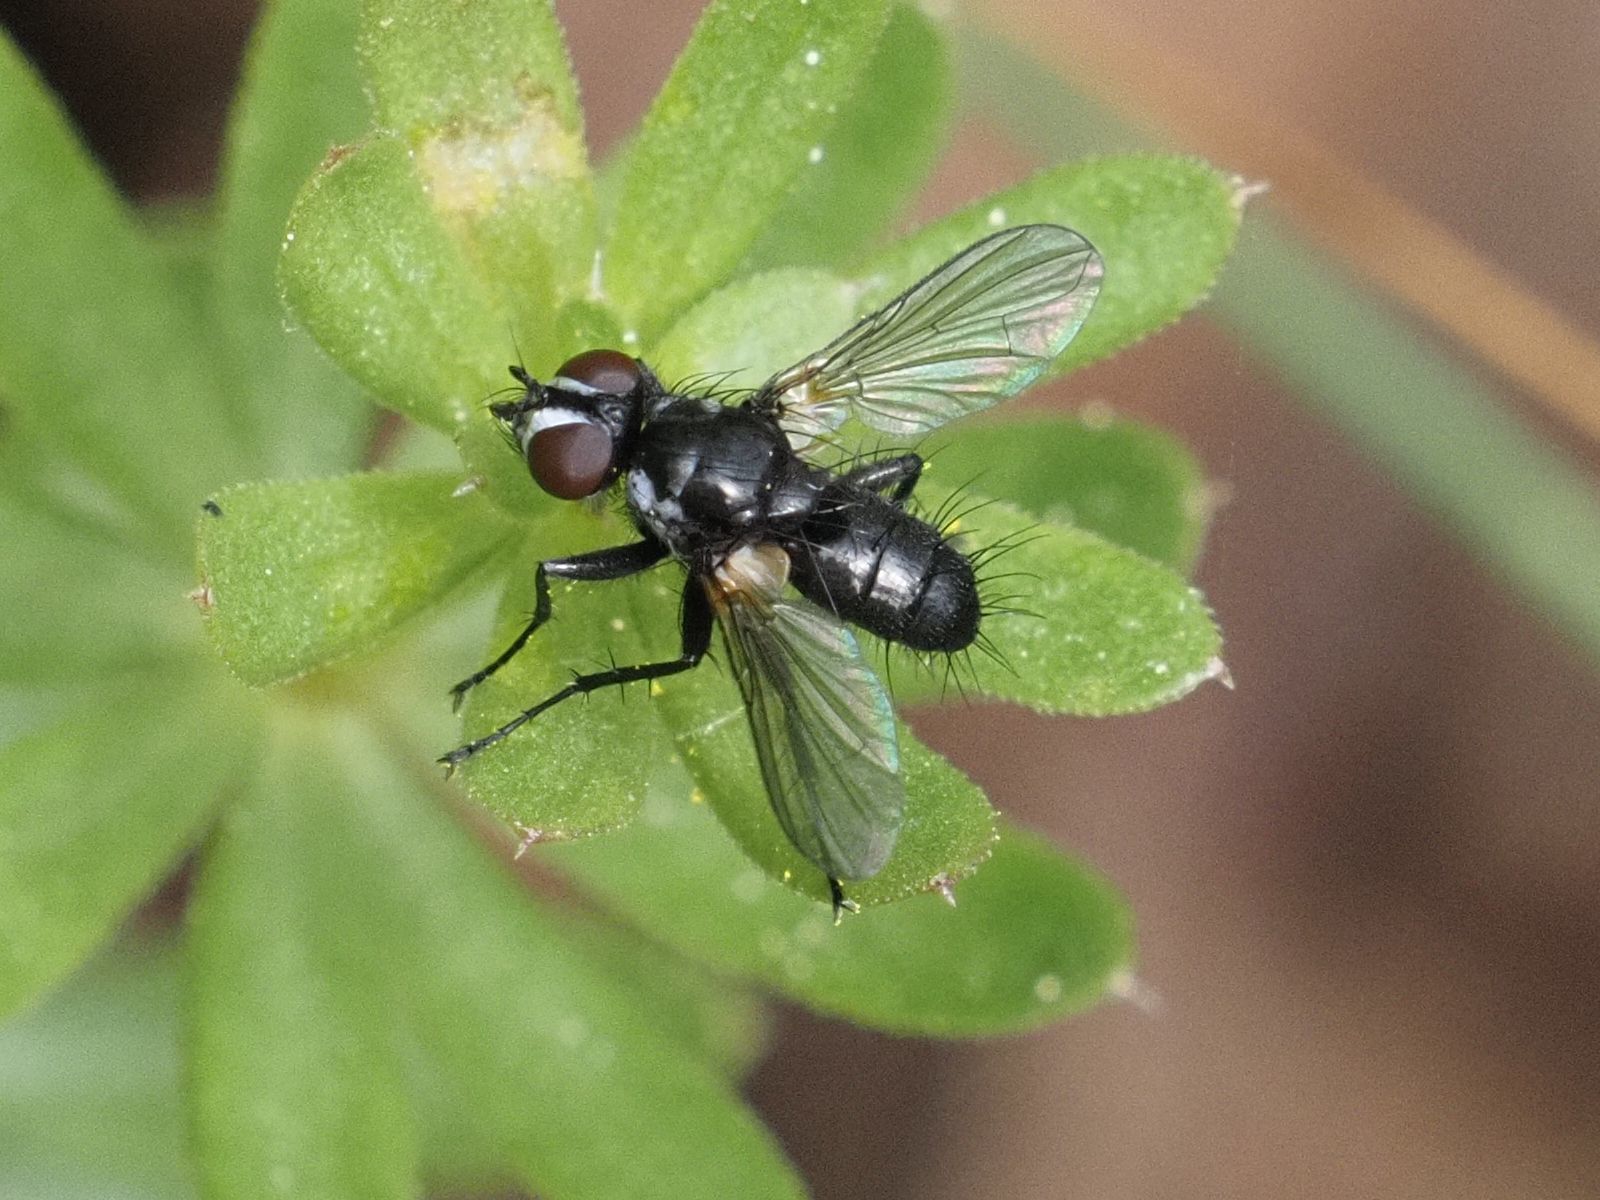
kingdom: Animalia
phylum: Arthropoda
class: Insecta
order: Diptera
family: Tachinidae
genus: Phania
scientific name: Phania funesta
